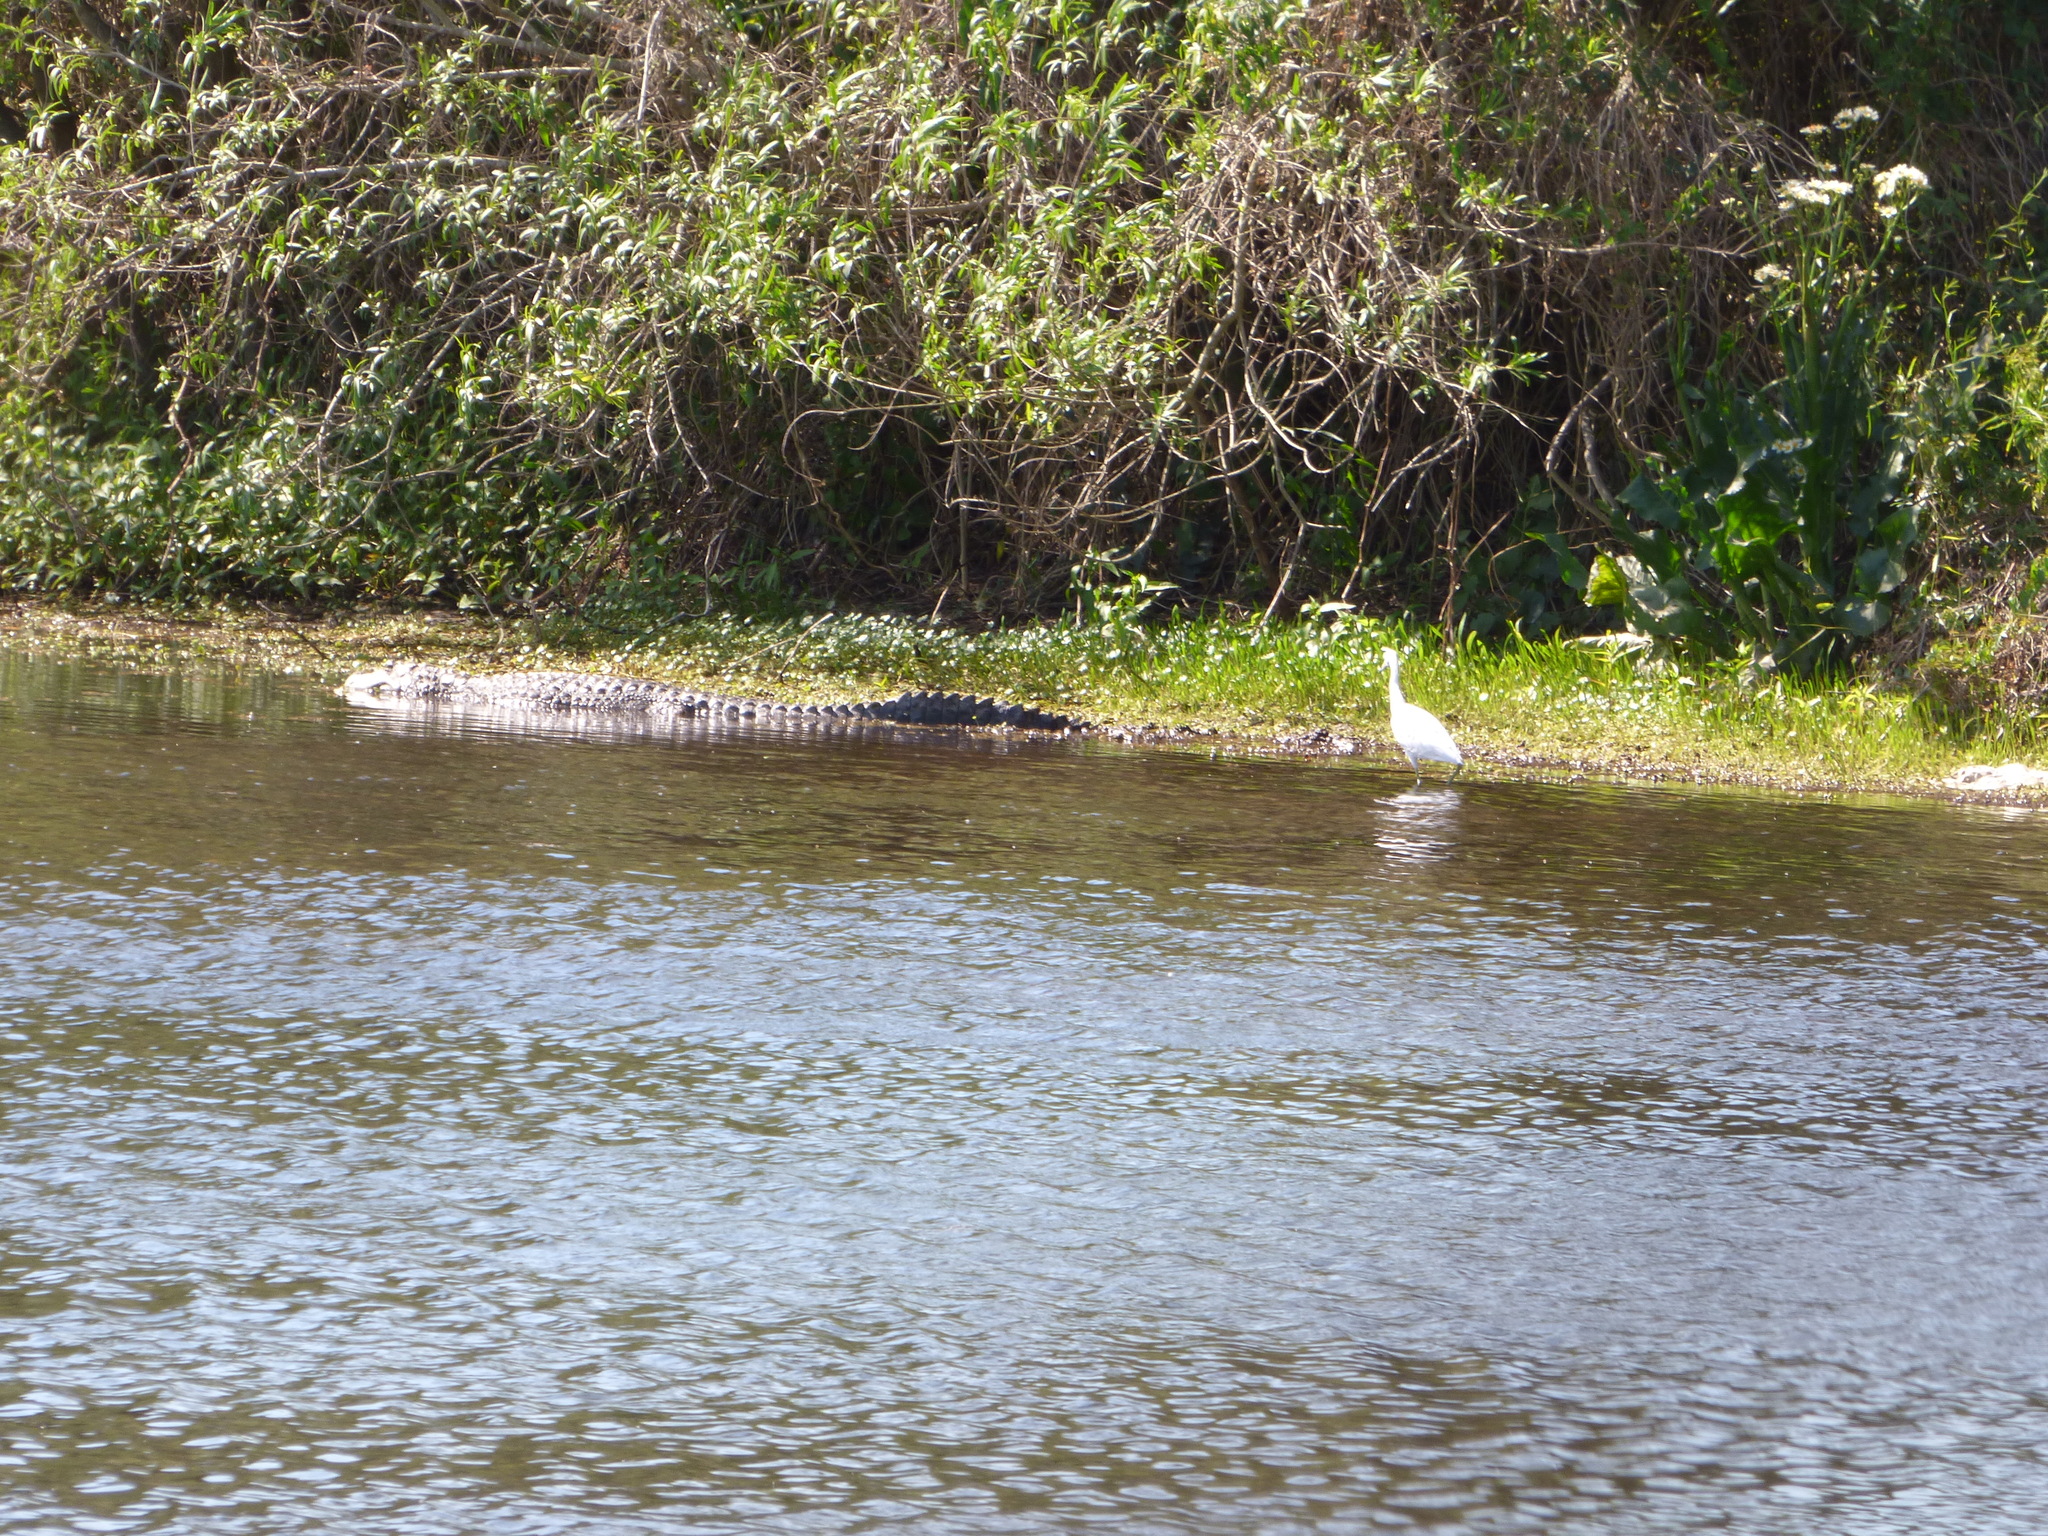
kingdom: Animalia
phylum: Chordata
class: Crocodylia
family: Alligatoridae
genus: Caiman
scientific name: Caiman latirostris
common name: Broad-snouted caiman
